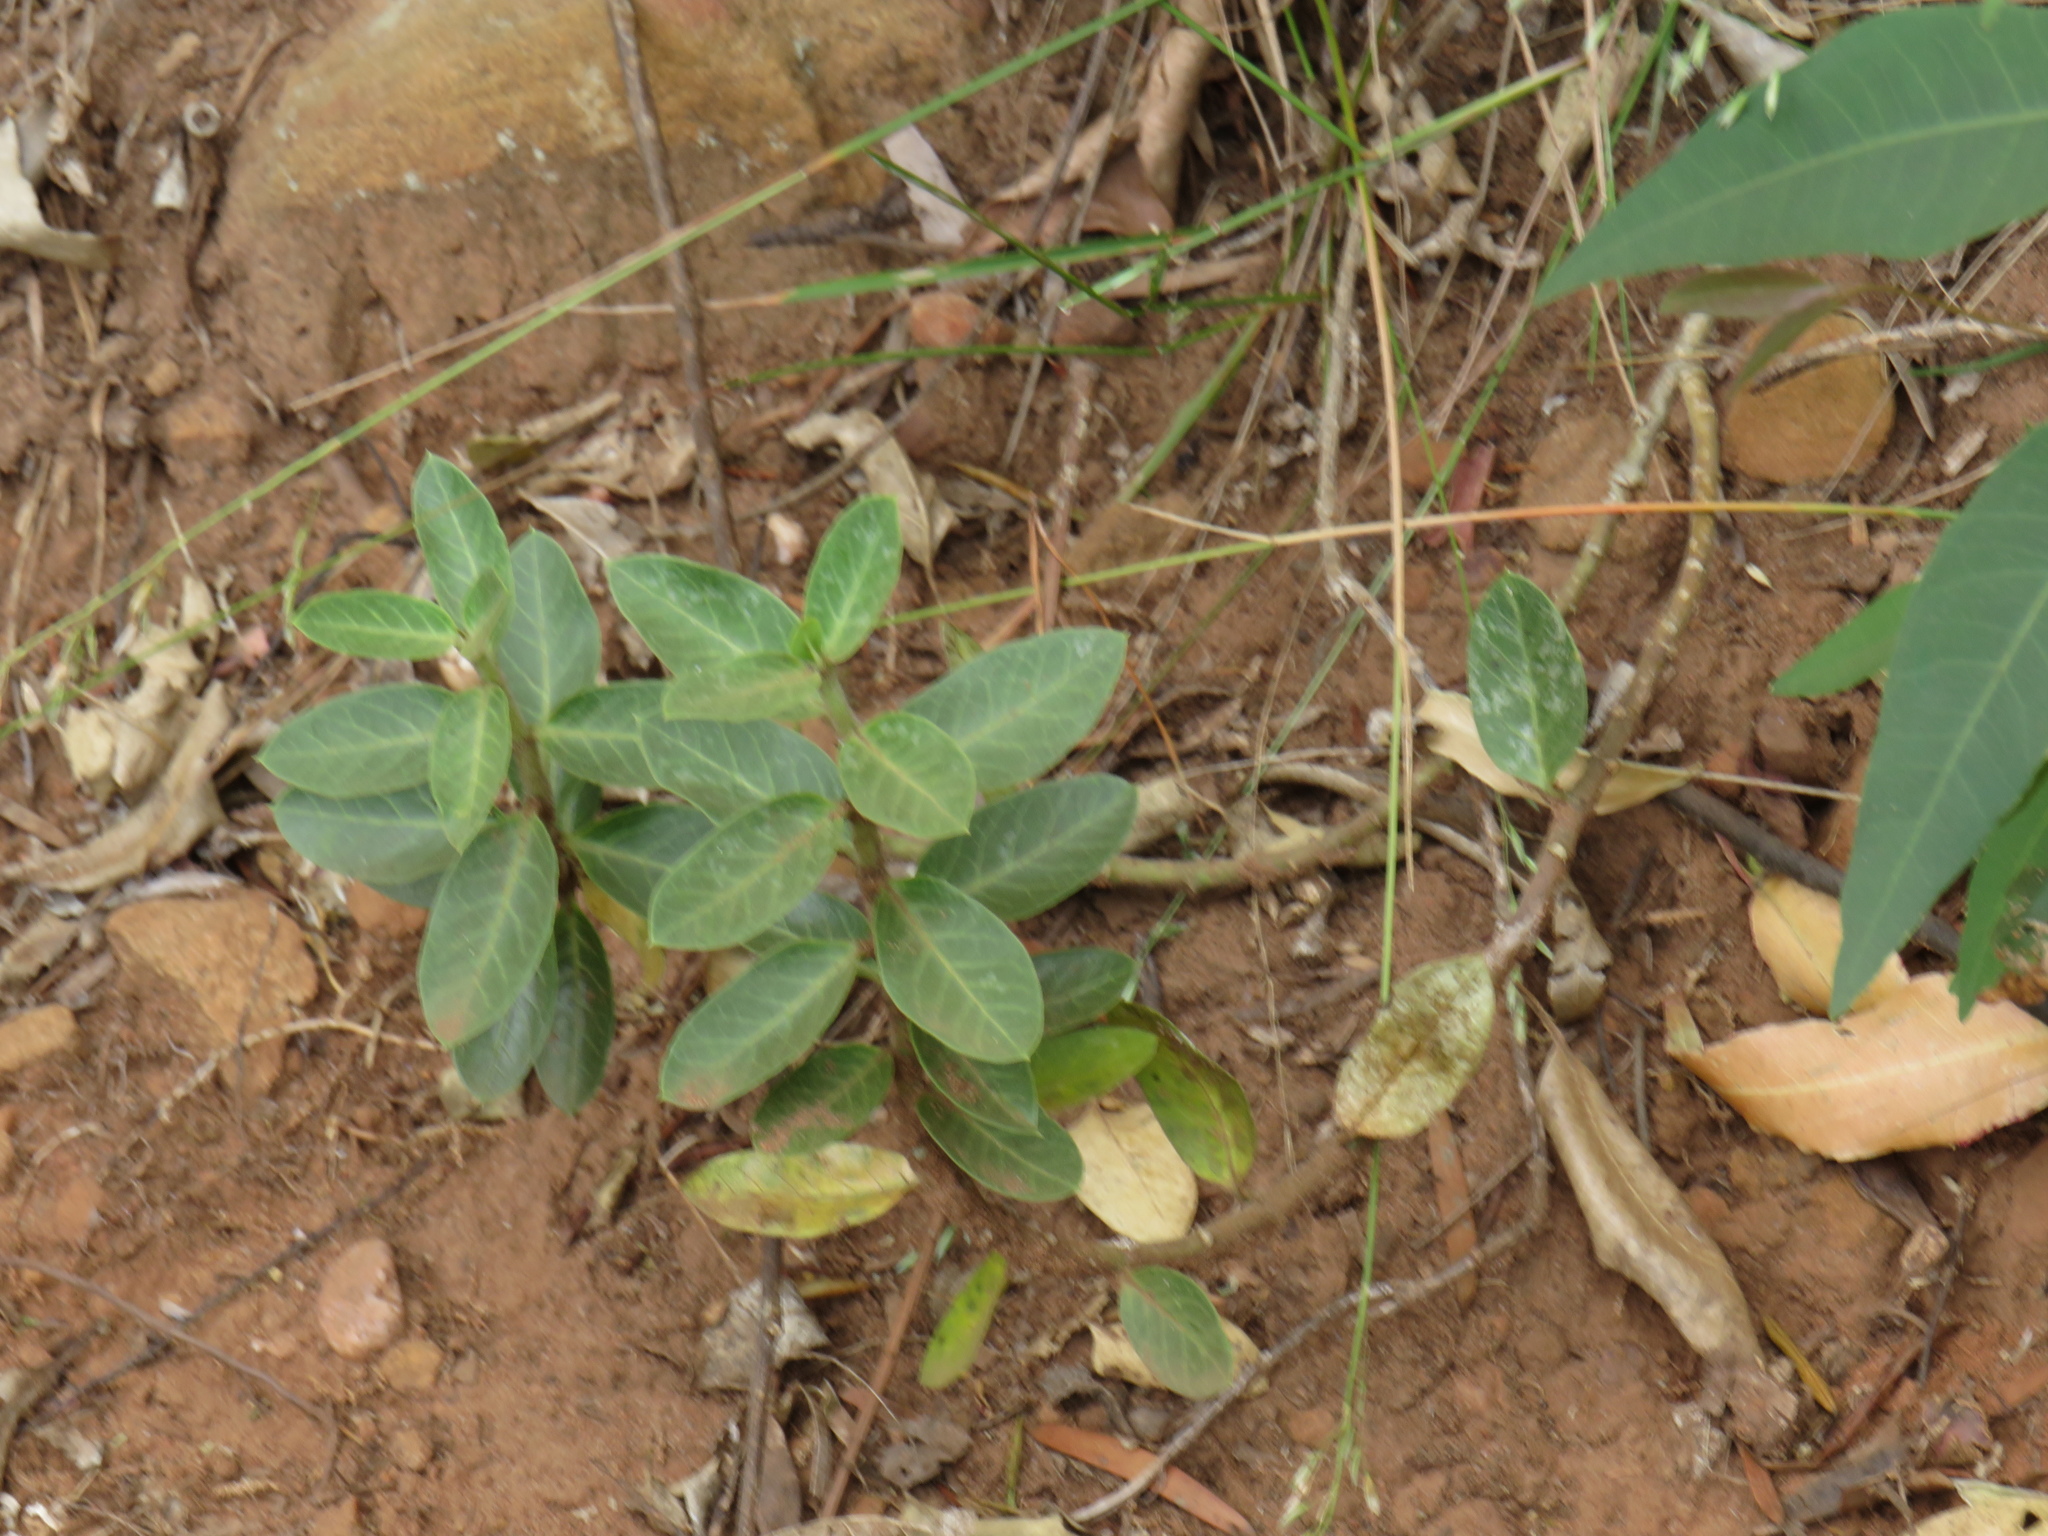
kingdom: Plantae
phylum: Tracheophyta
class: Magnoliopsida
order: Gentianales
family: Apocynaceae
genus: Gomphocarpus
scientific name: Gomphocarpus cancellatus
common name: Wild cotton
